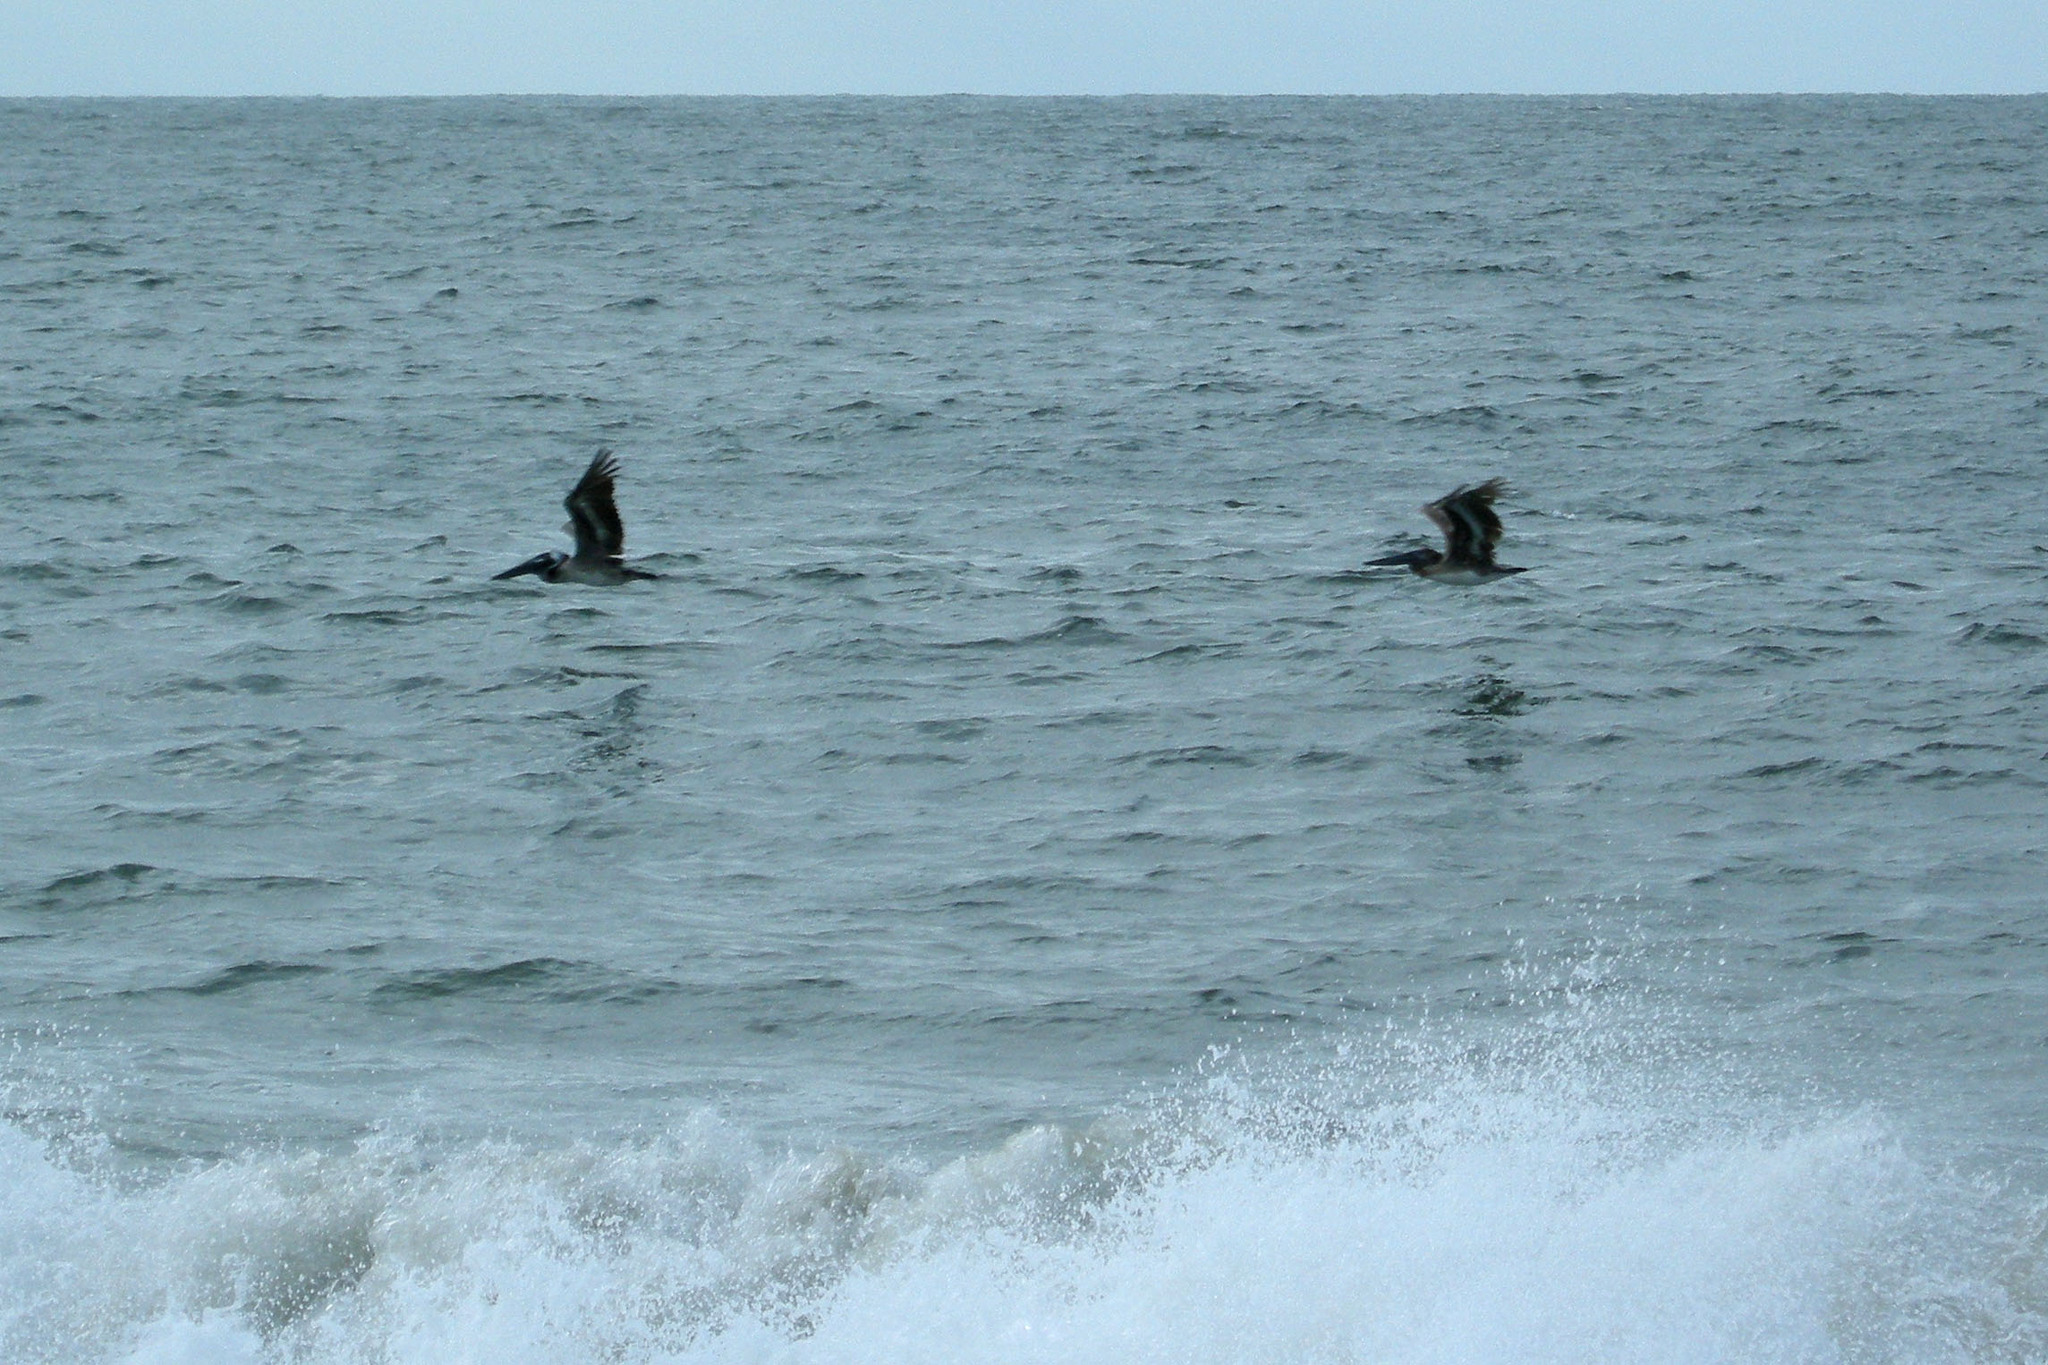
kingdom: Animalia
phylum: Chordata
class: Aves
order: Pelecaniformes
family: Pelecanidae
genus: Pelecanus
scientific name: Pelecanus occidentalis
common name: Brown pelican
